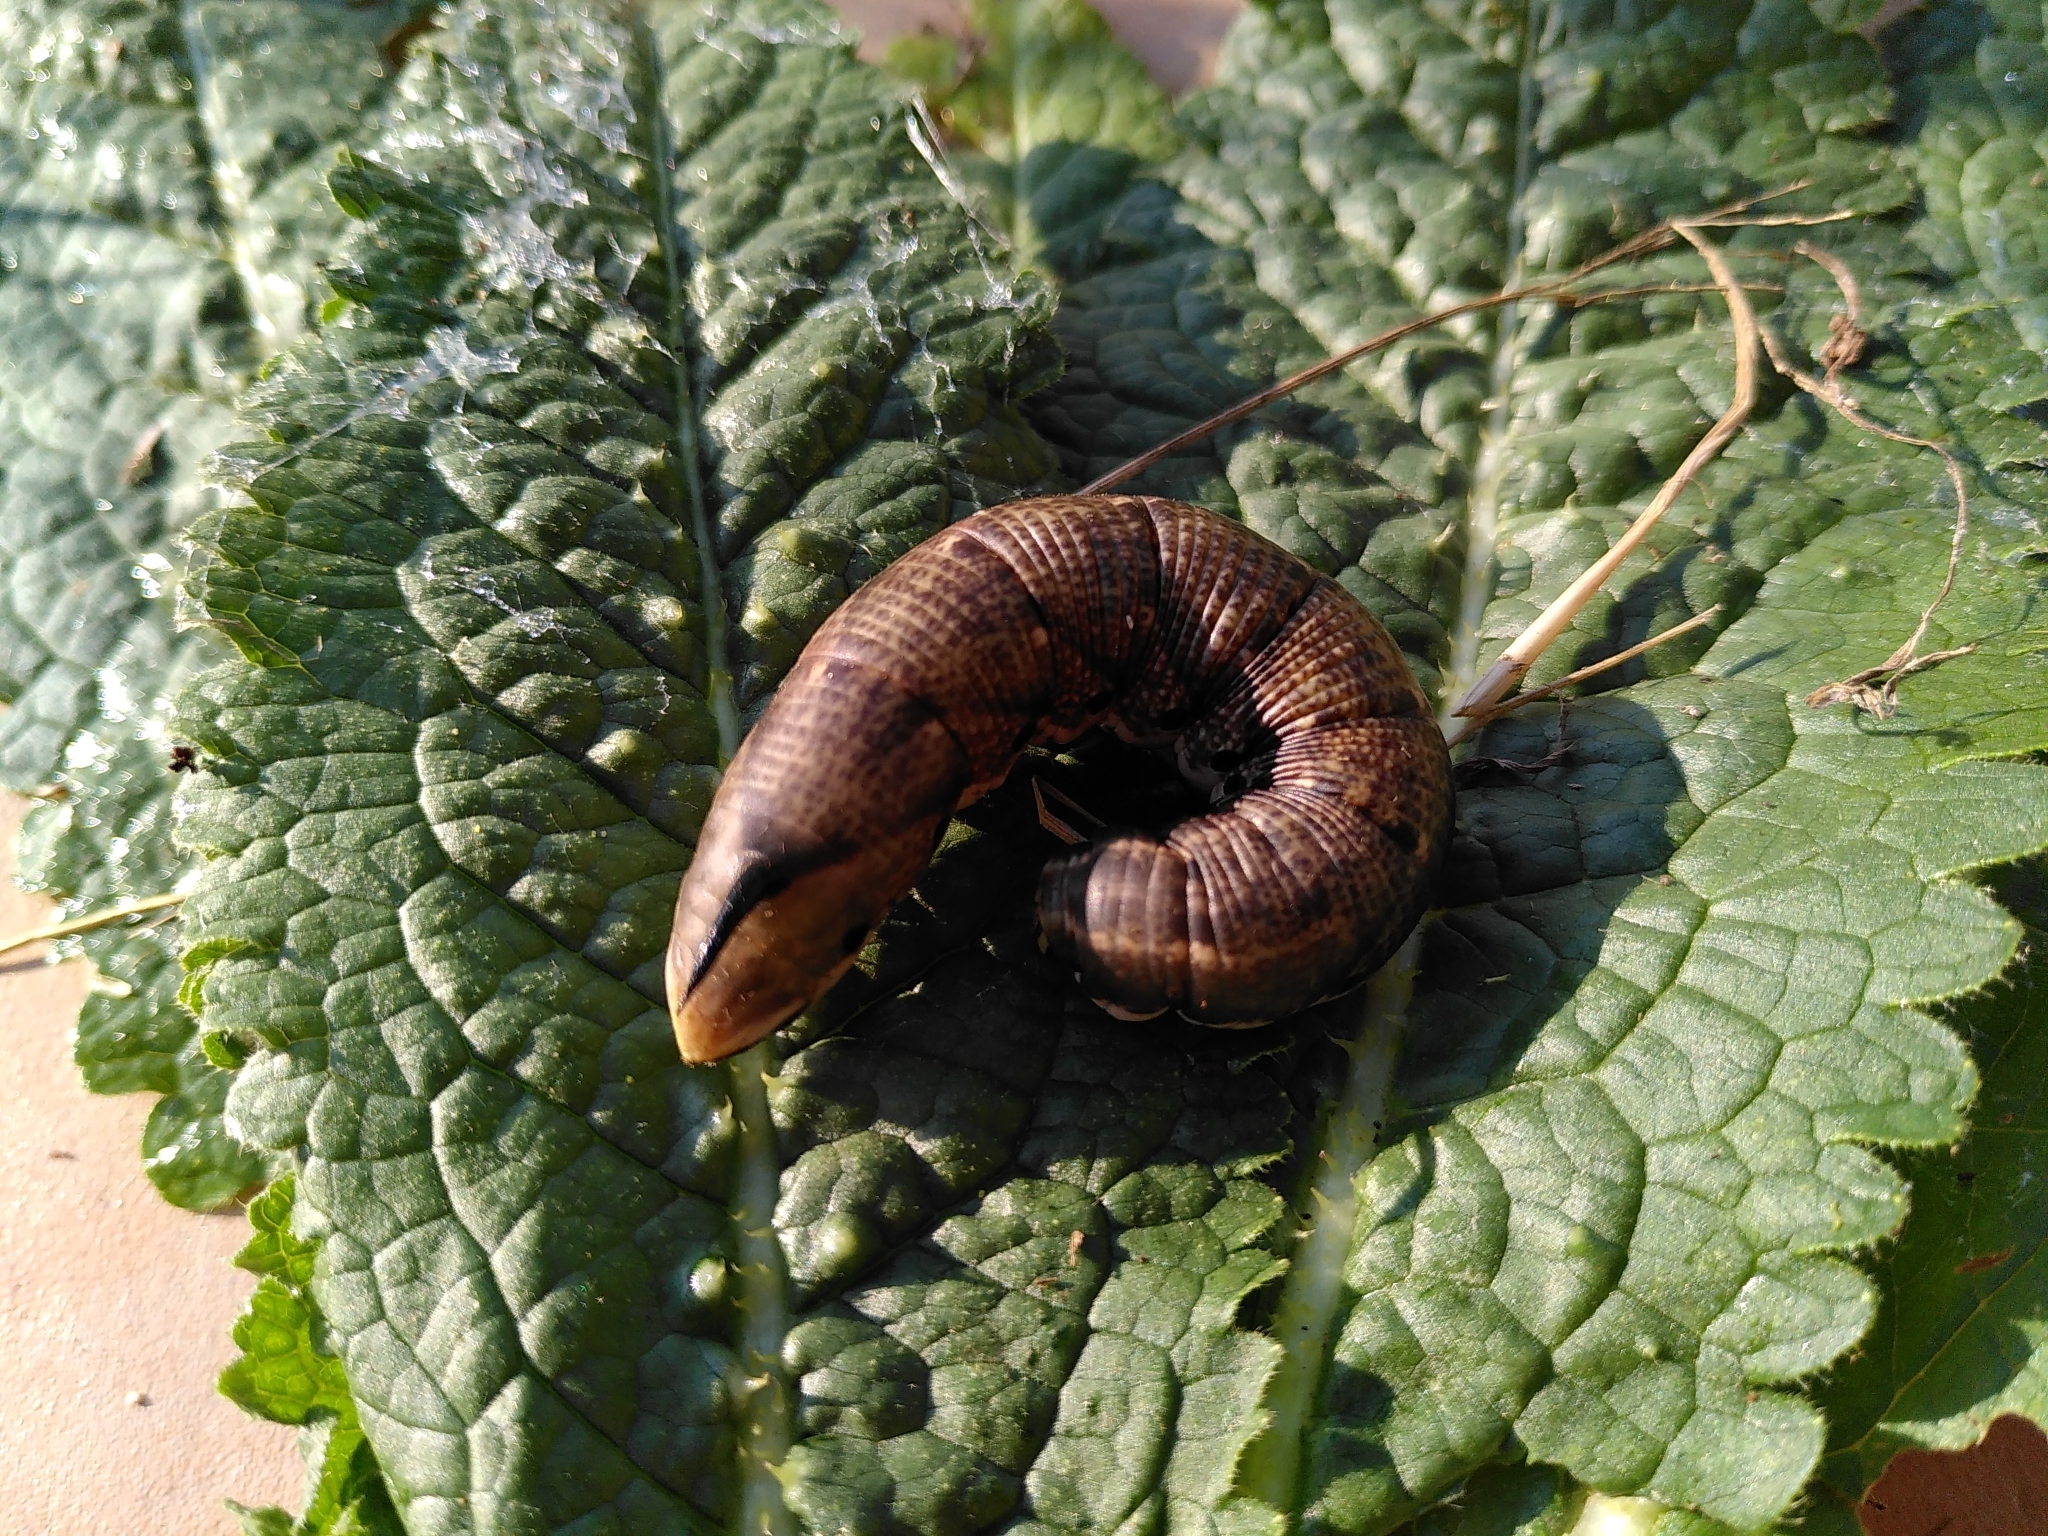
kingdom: Animalia
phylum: Arthropoda
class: Insecta
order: Lepidoptera
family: Sphingidae
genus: Agrius
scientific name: Agrius convolvuli
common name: Convolvulus hawkmoth
